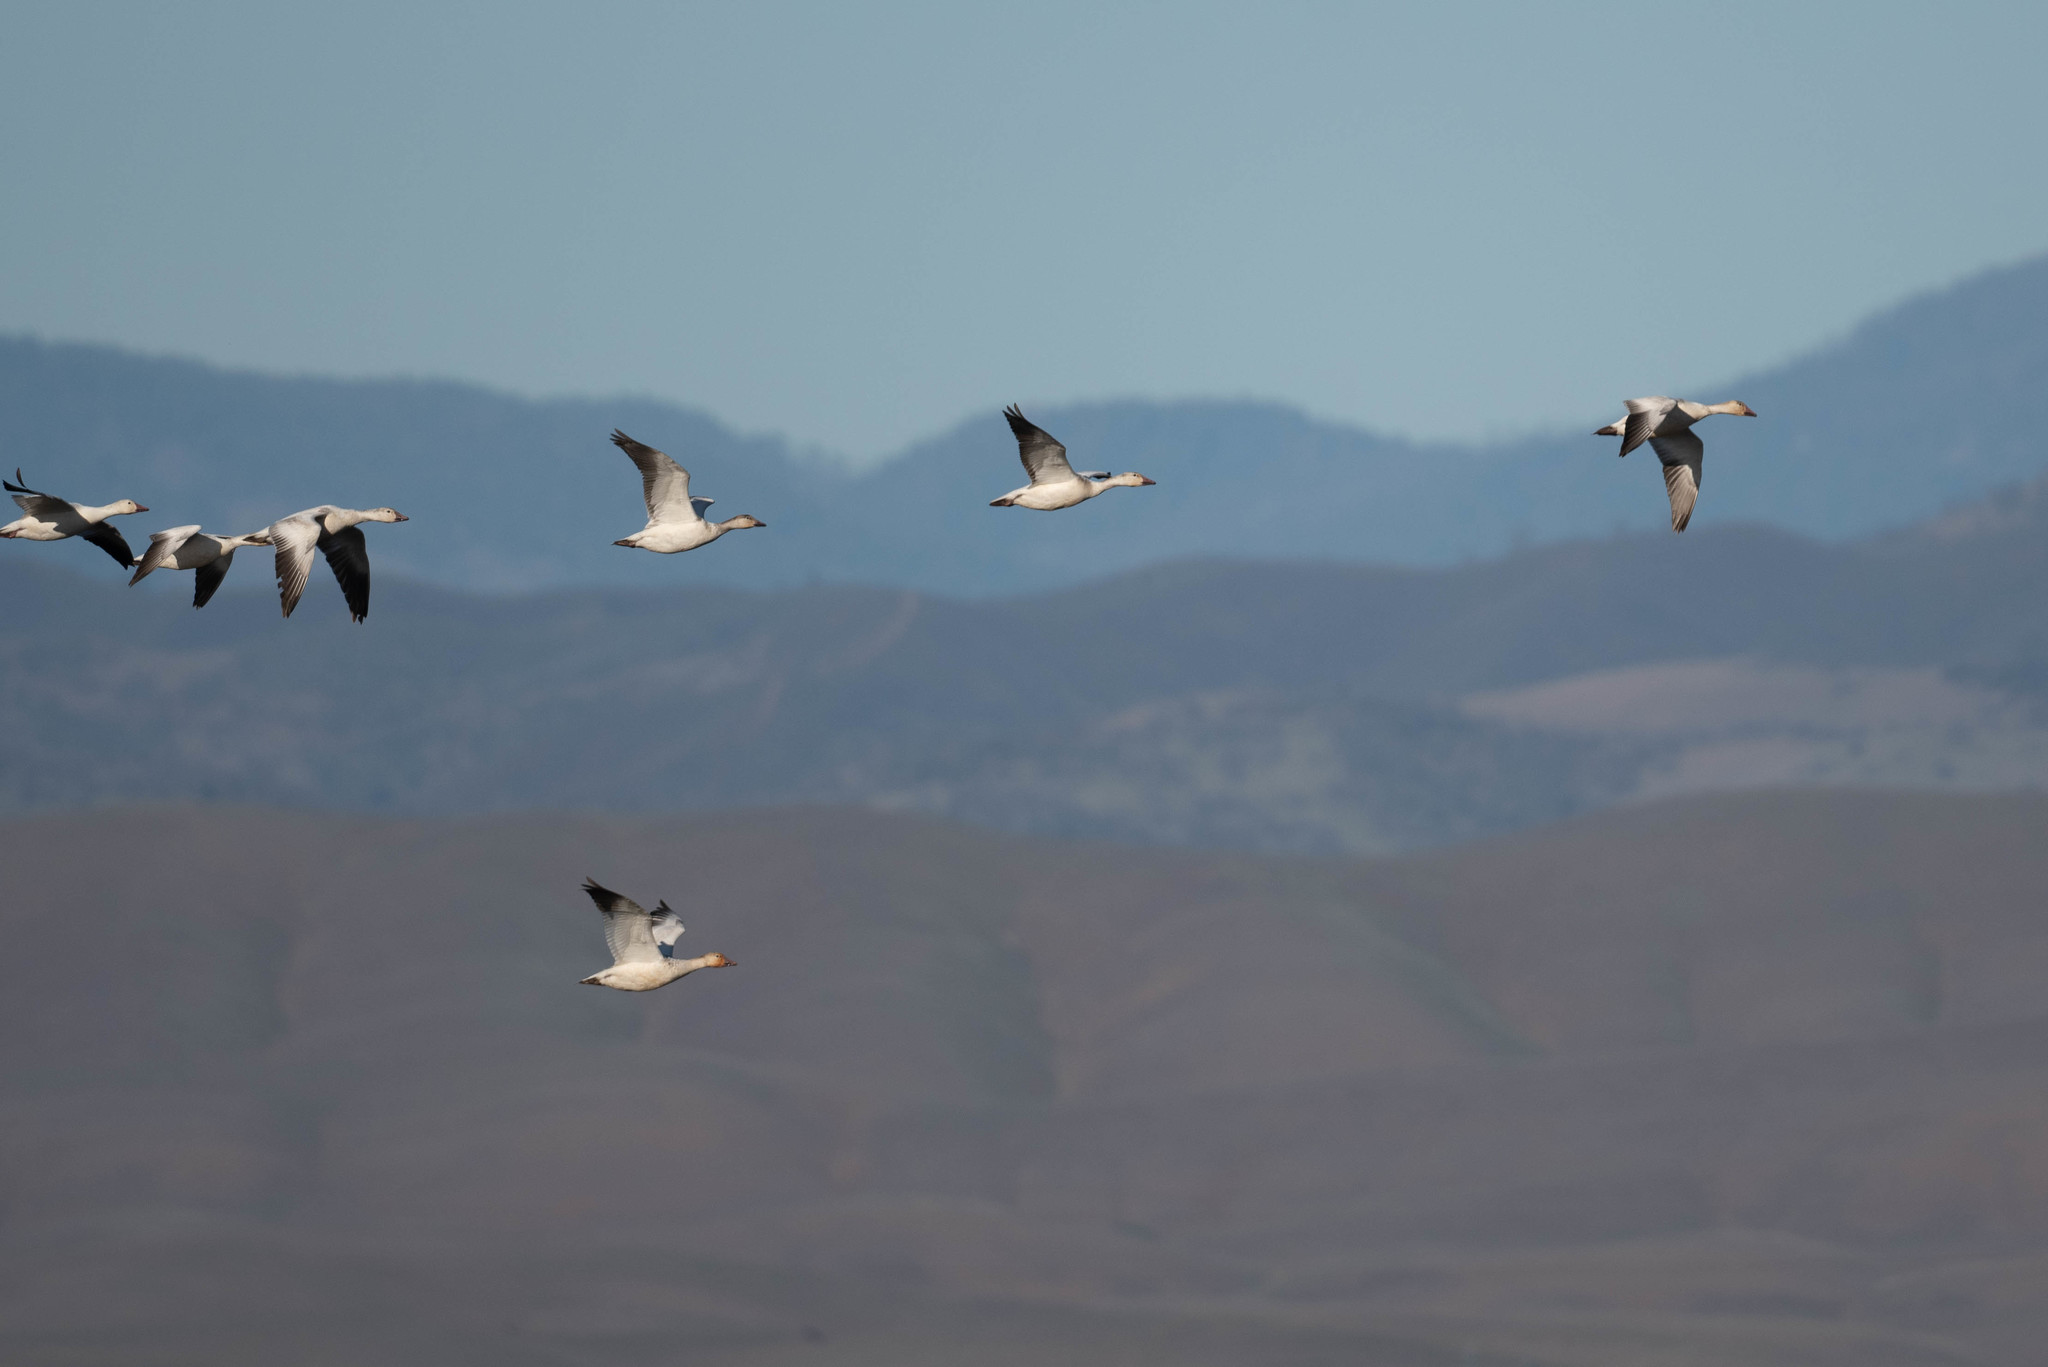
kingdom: Animalia
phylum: Chordata
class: Aves
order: Anseriformes
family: Anatidae
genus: Anser
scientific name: Anser caerulescens
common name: Snow goose
